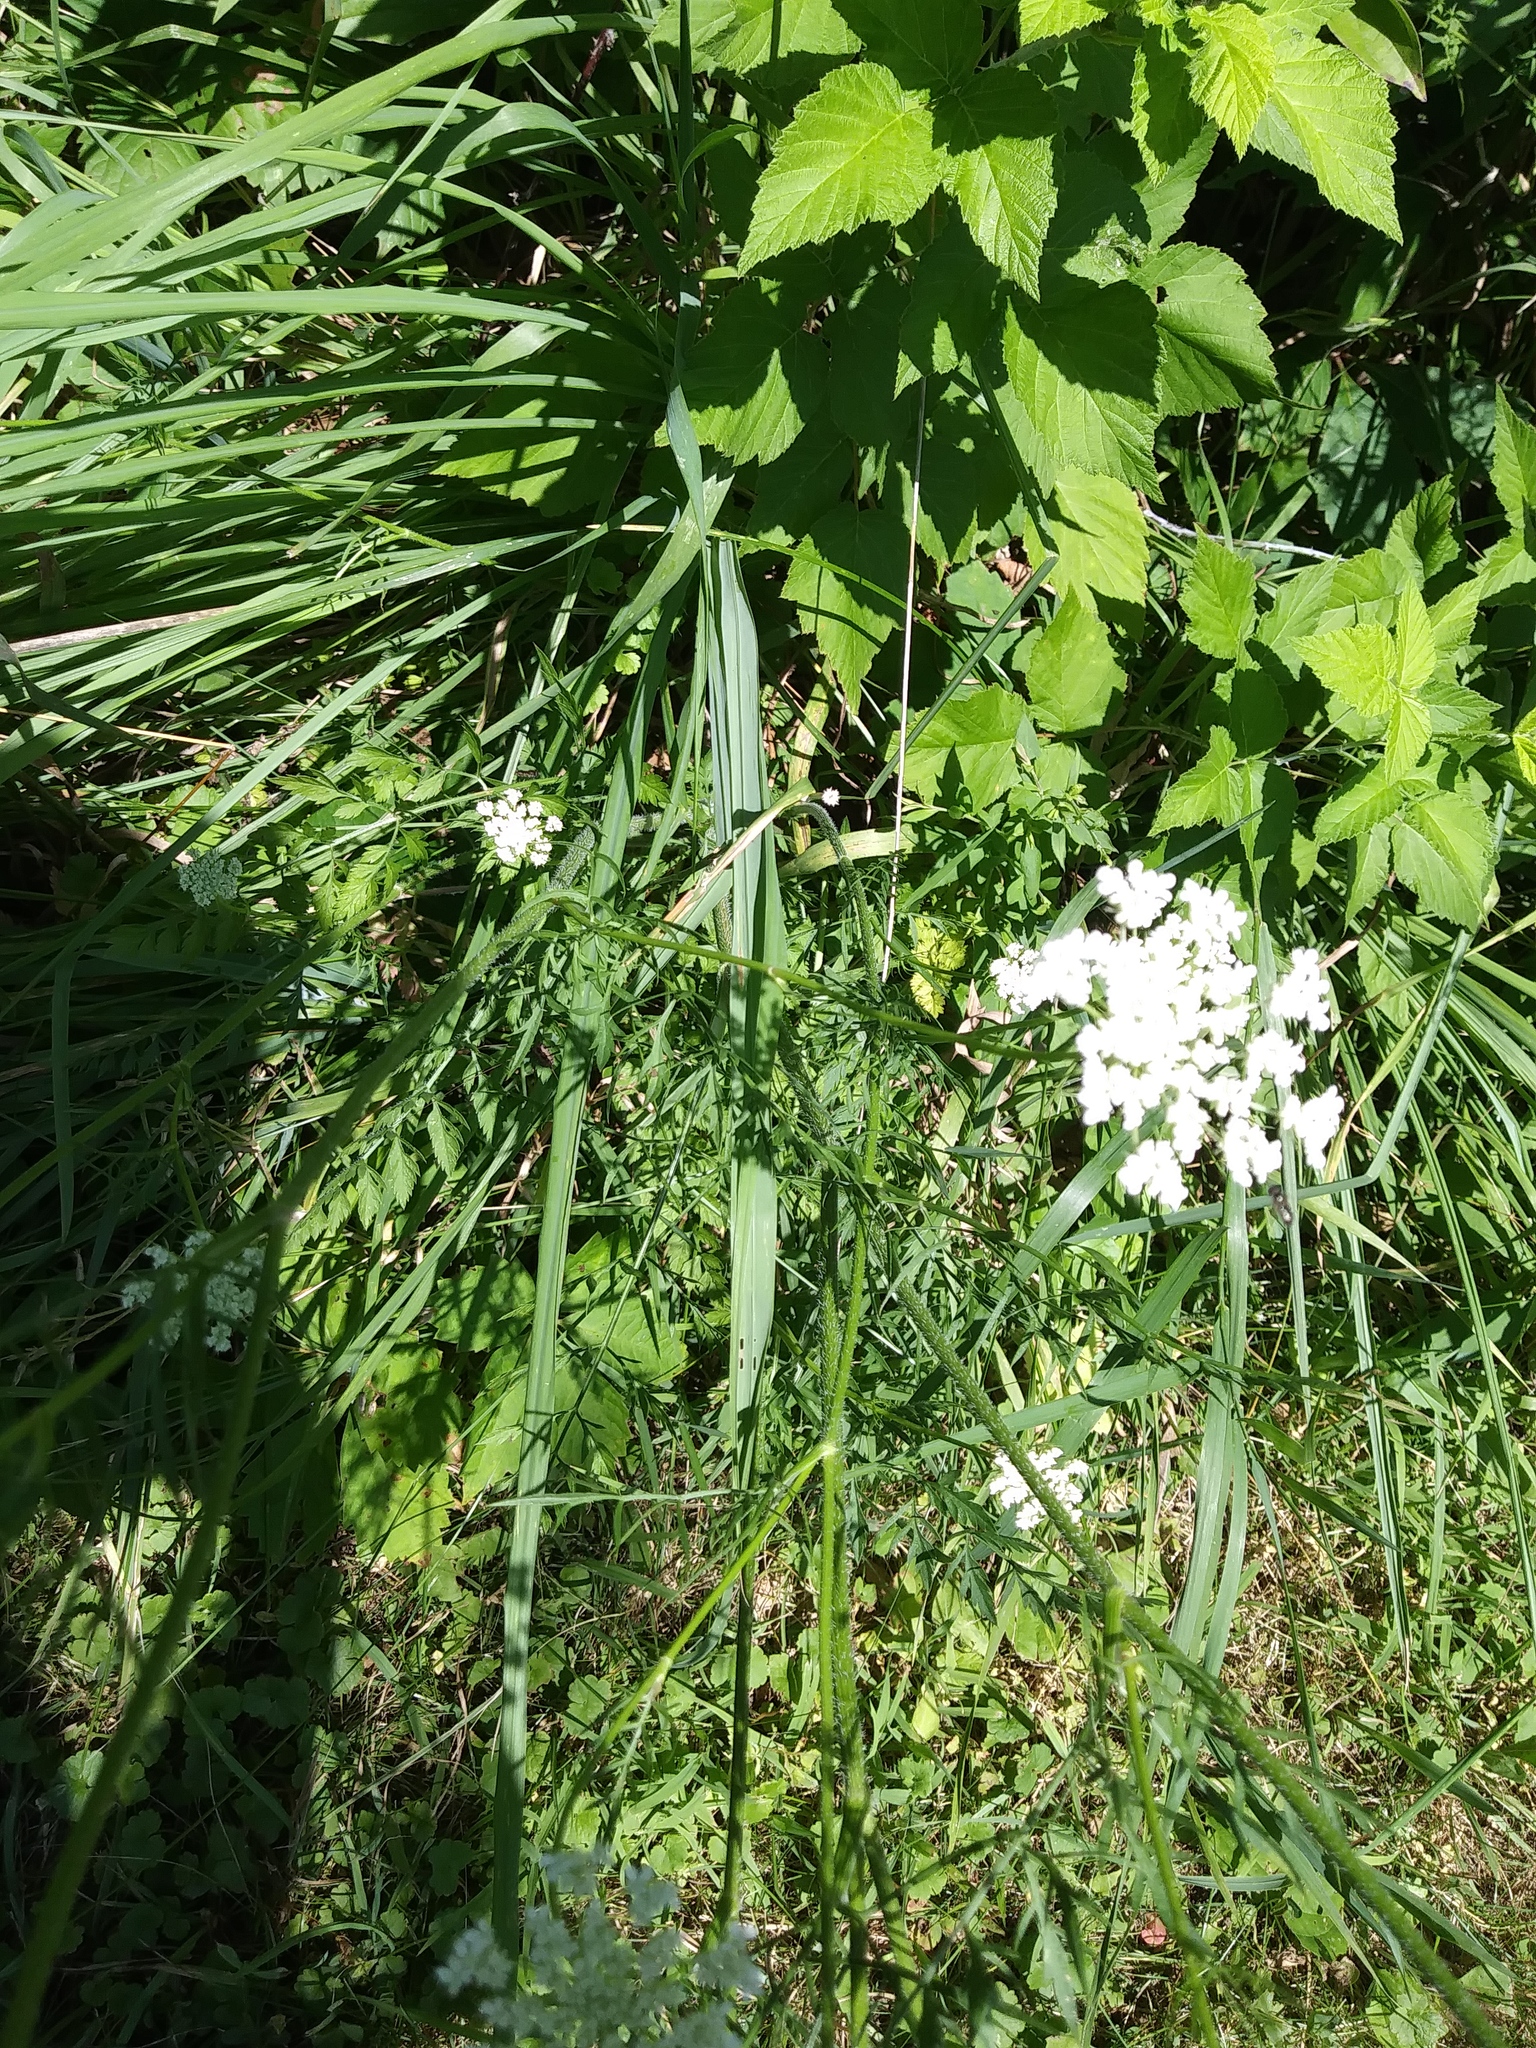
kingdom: Plantae
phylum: Tracheophyta
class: Magnoliopsida
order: Apiales
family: Apiaceae
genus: Daucus
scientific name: Daucus carota
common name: Wild carrot
